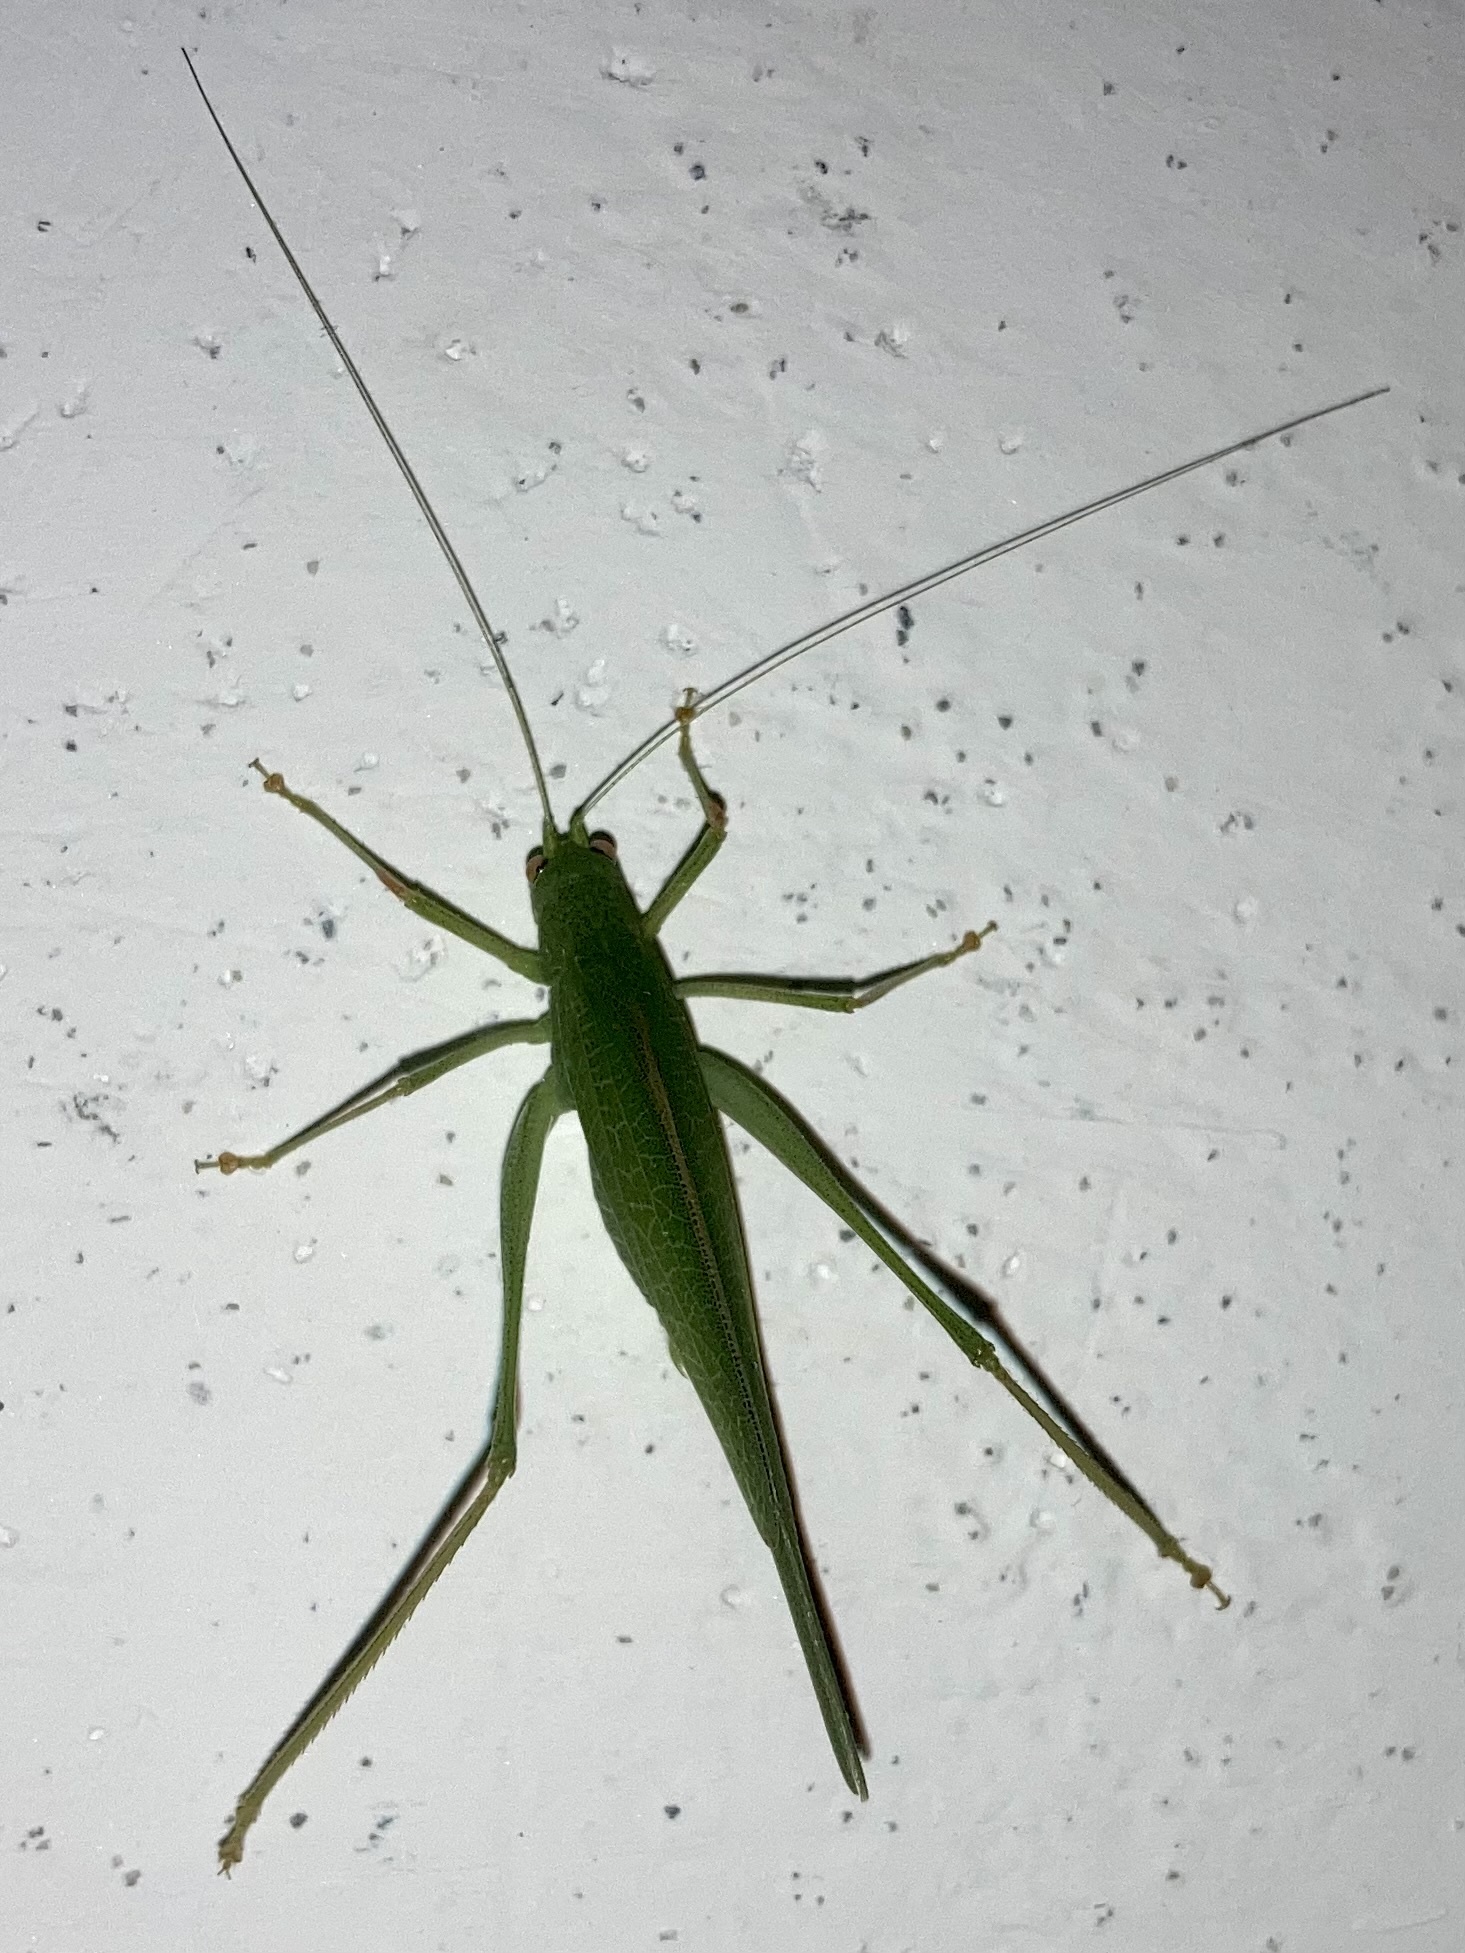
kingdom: Animalia
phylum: Arthropoda
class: Insecta
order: Orthoptera
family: Tettigoniidae
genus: Phaneroptera
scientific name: Phaneroptera nana
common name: Southern sickle bush-cricket
